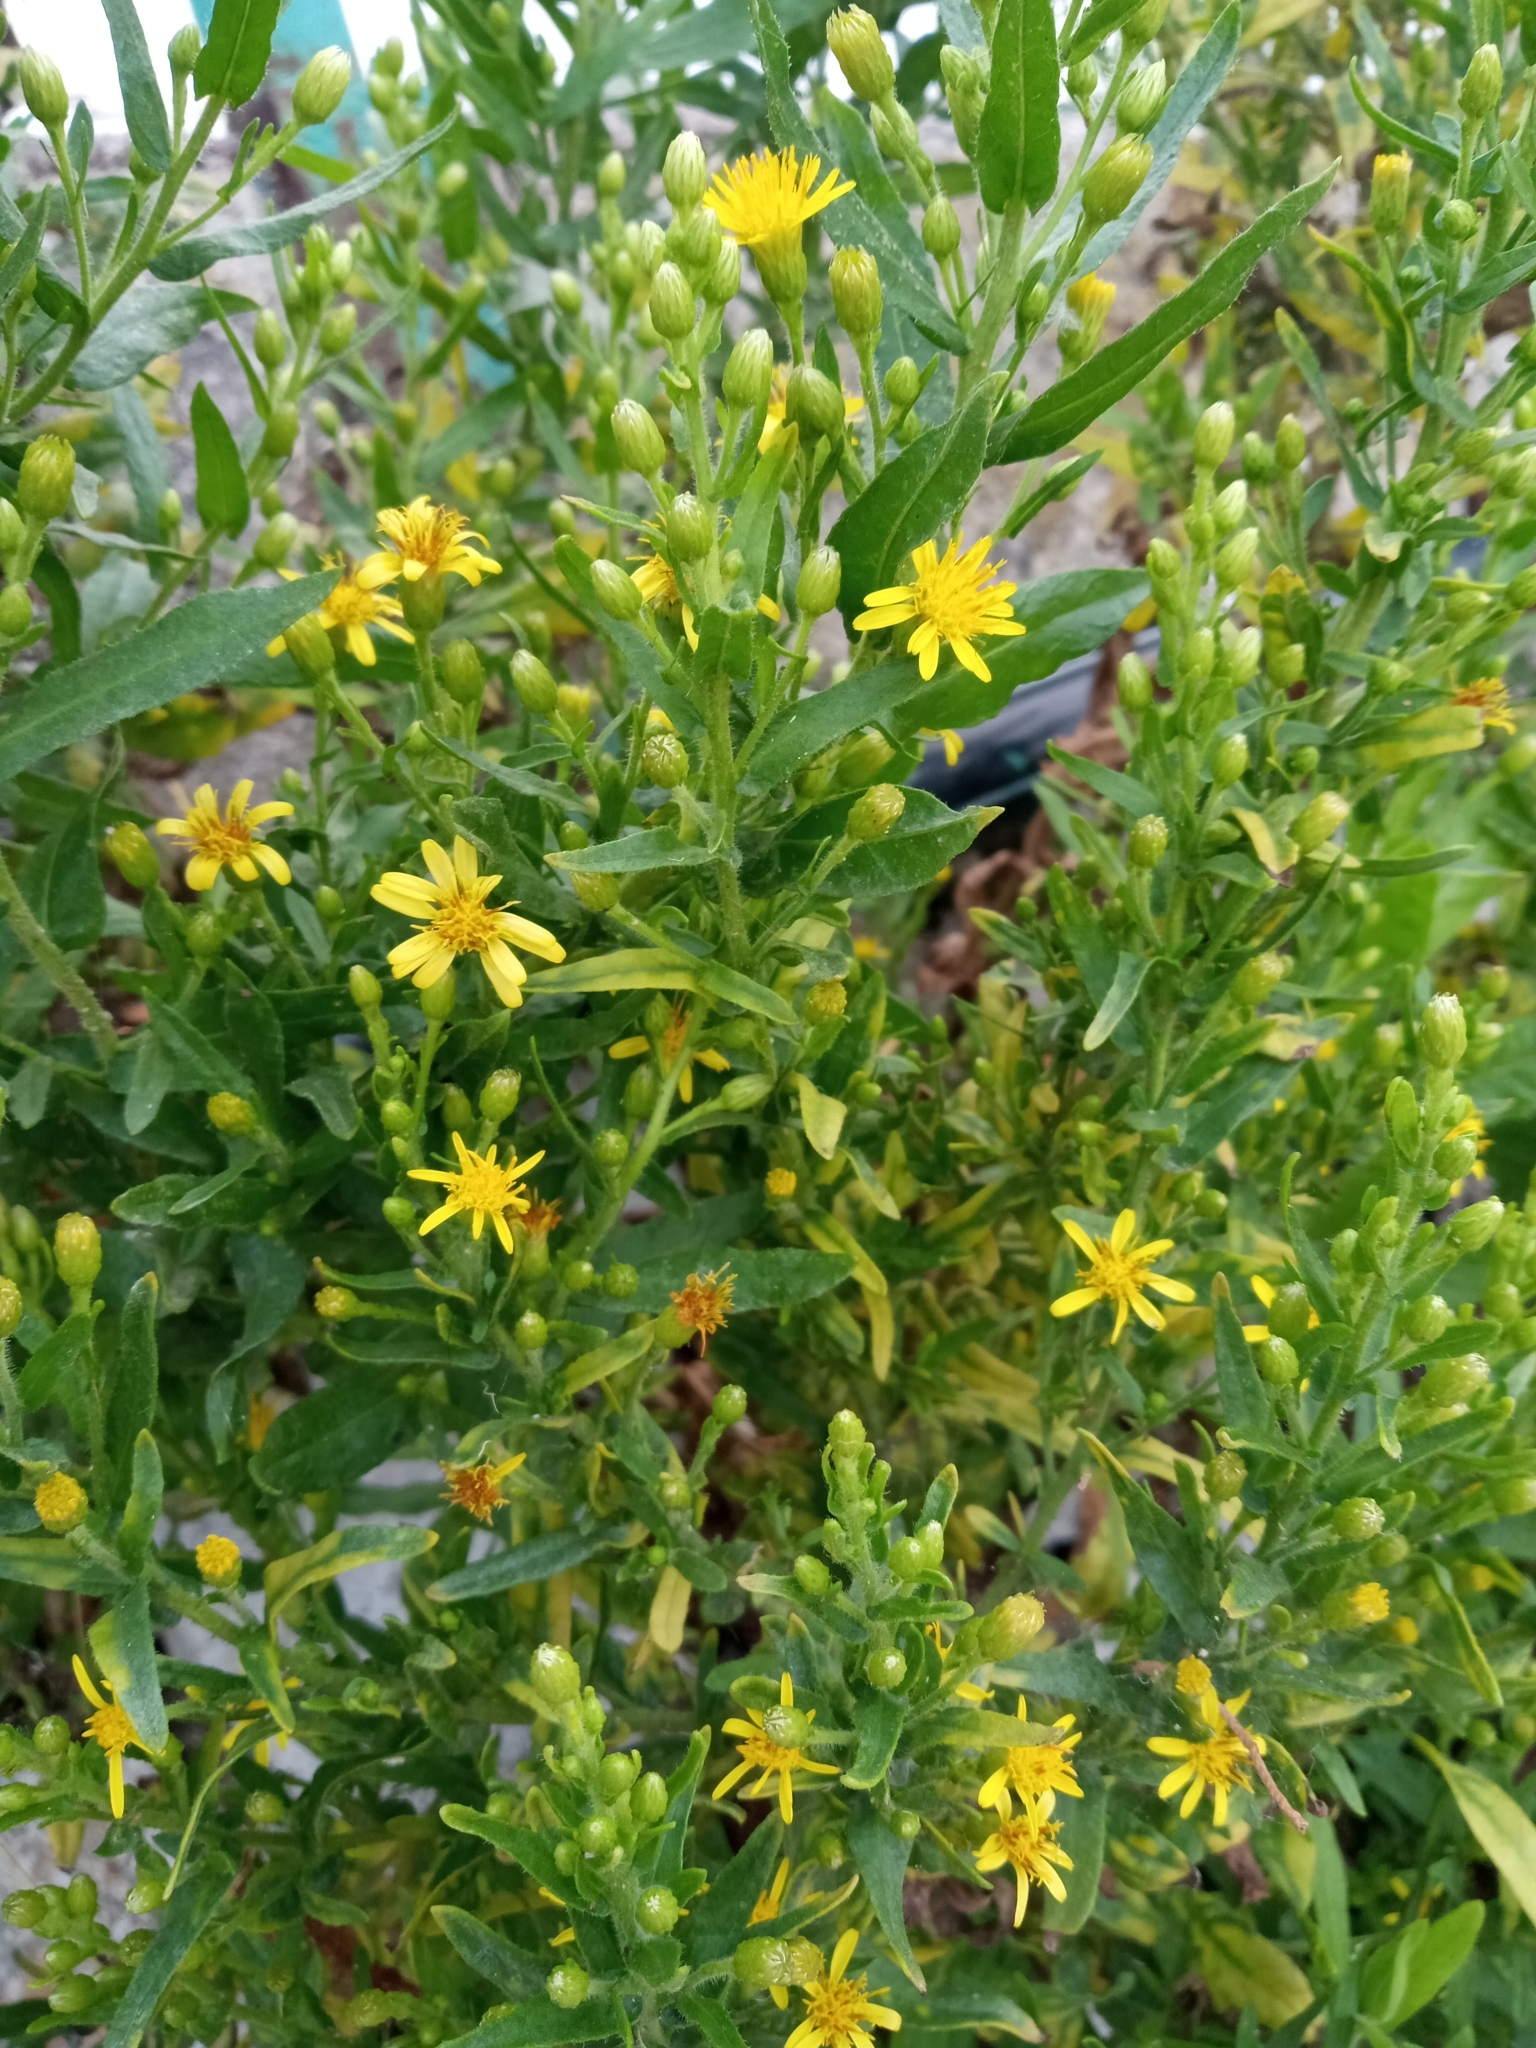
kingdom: Plantae
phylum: Tracheophyta
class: Magnoliopsida
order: Asterales
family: Asteraceae
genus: Dittrichia
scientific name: Dittrichia viscosa
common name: Woody fleabane
